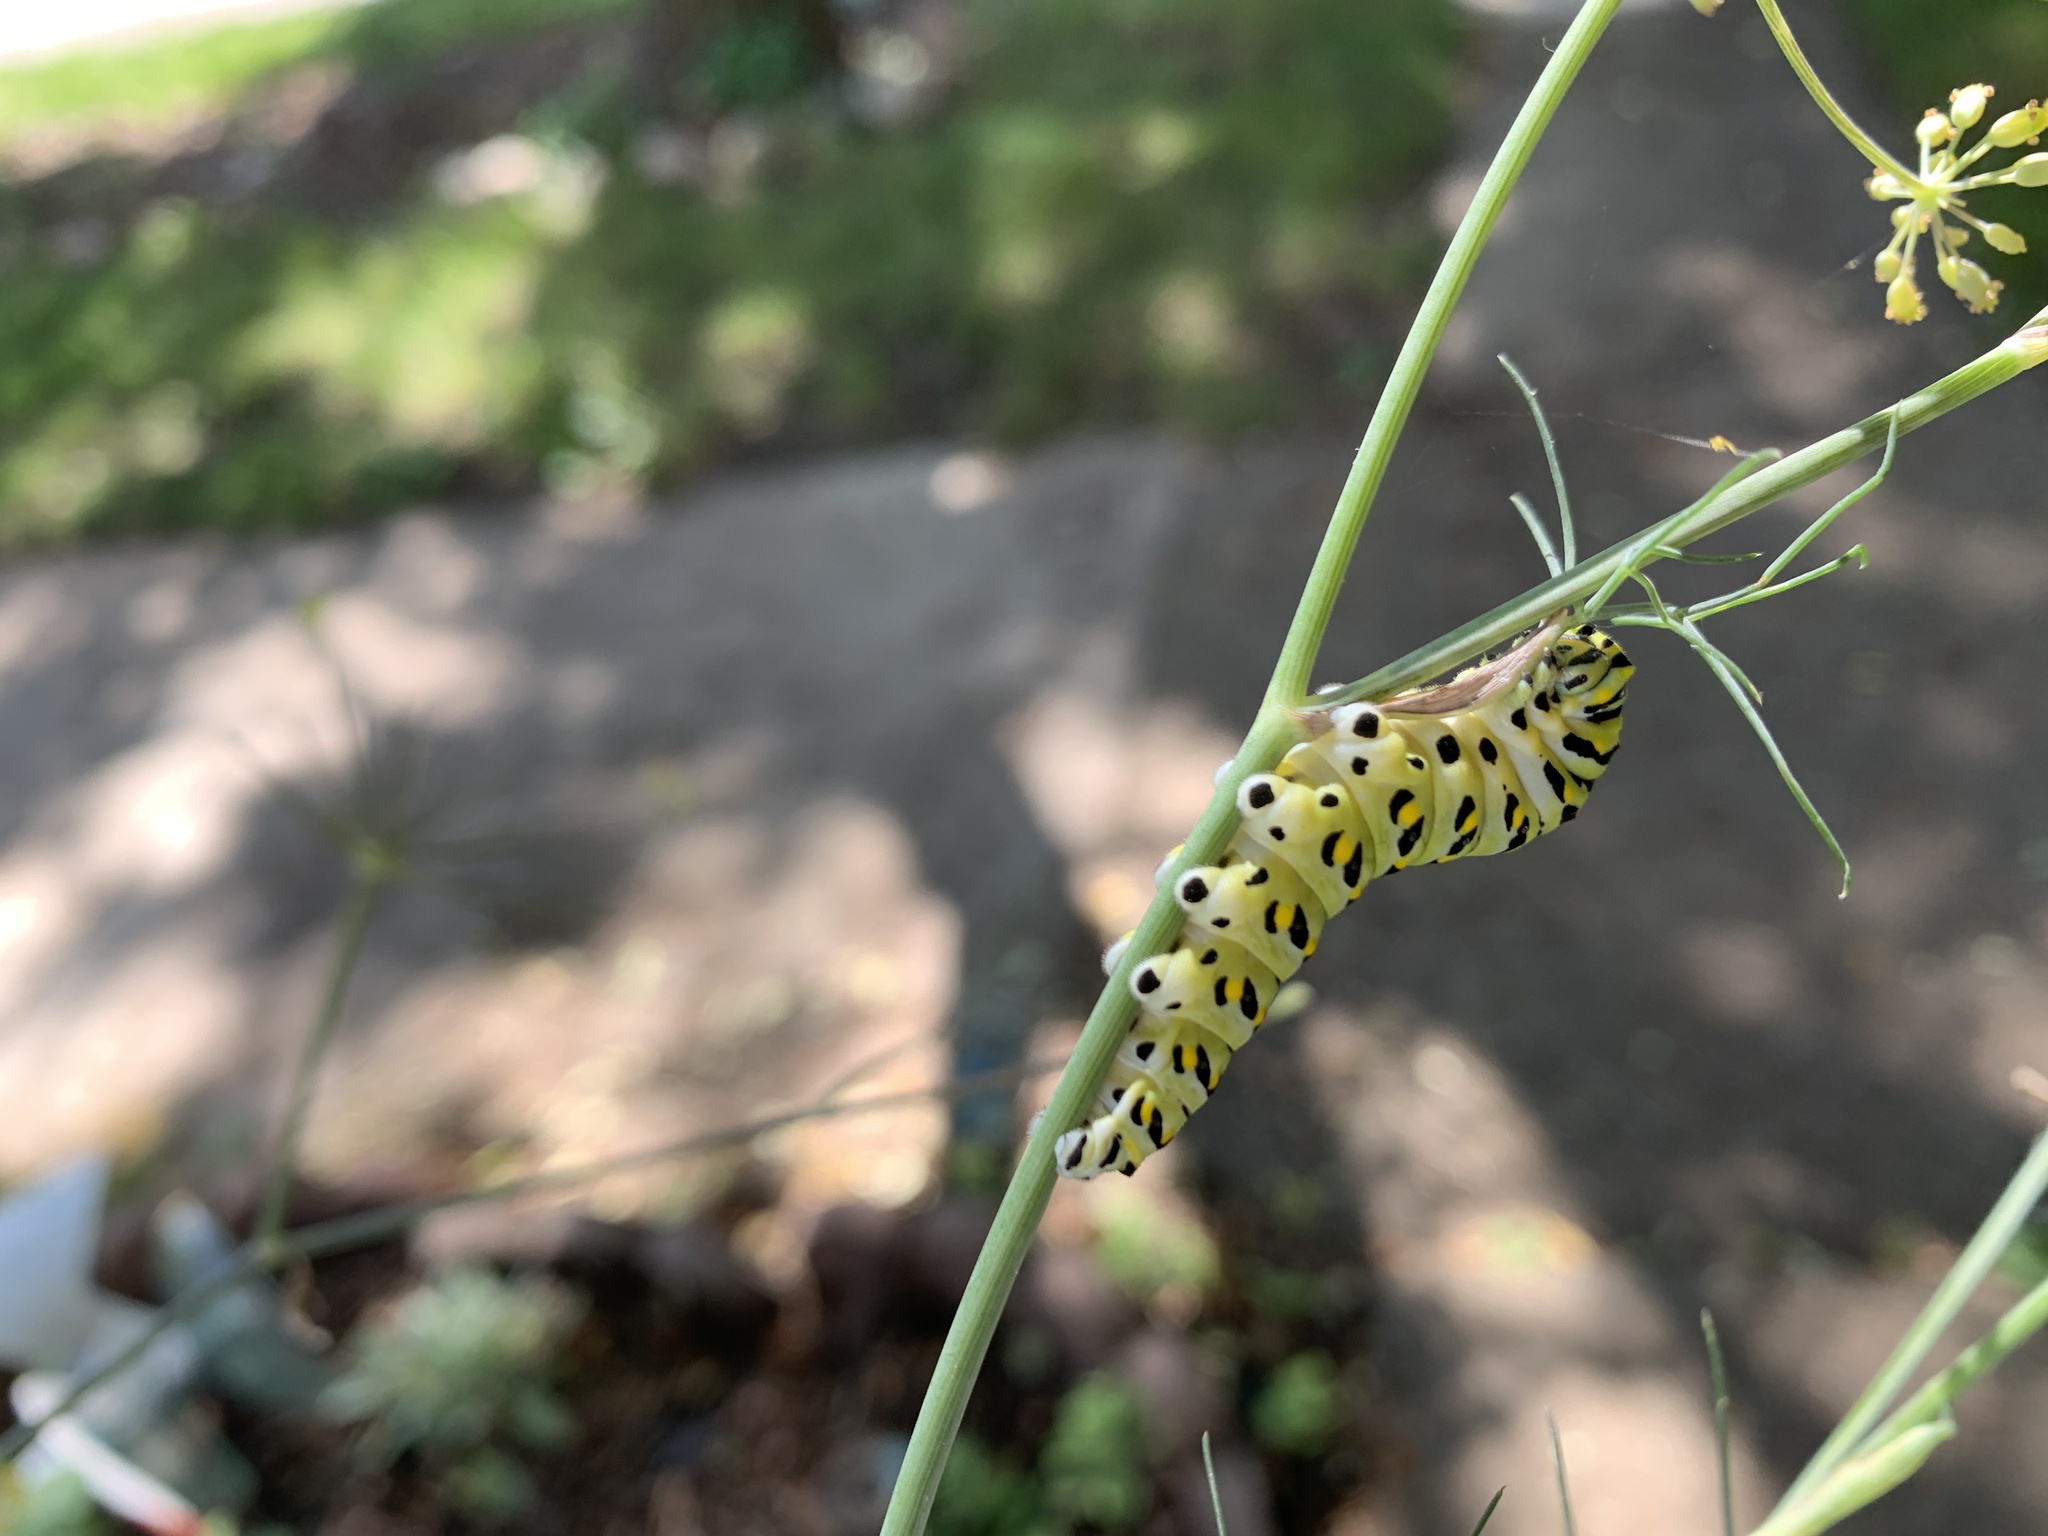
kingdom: Animalia
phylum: Arthropoda
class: Insecta
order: Lepidoptera
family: Papilionidae
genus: Papilio
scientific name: Papilio polyxenes
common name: Black swallowtail
